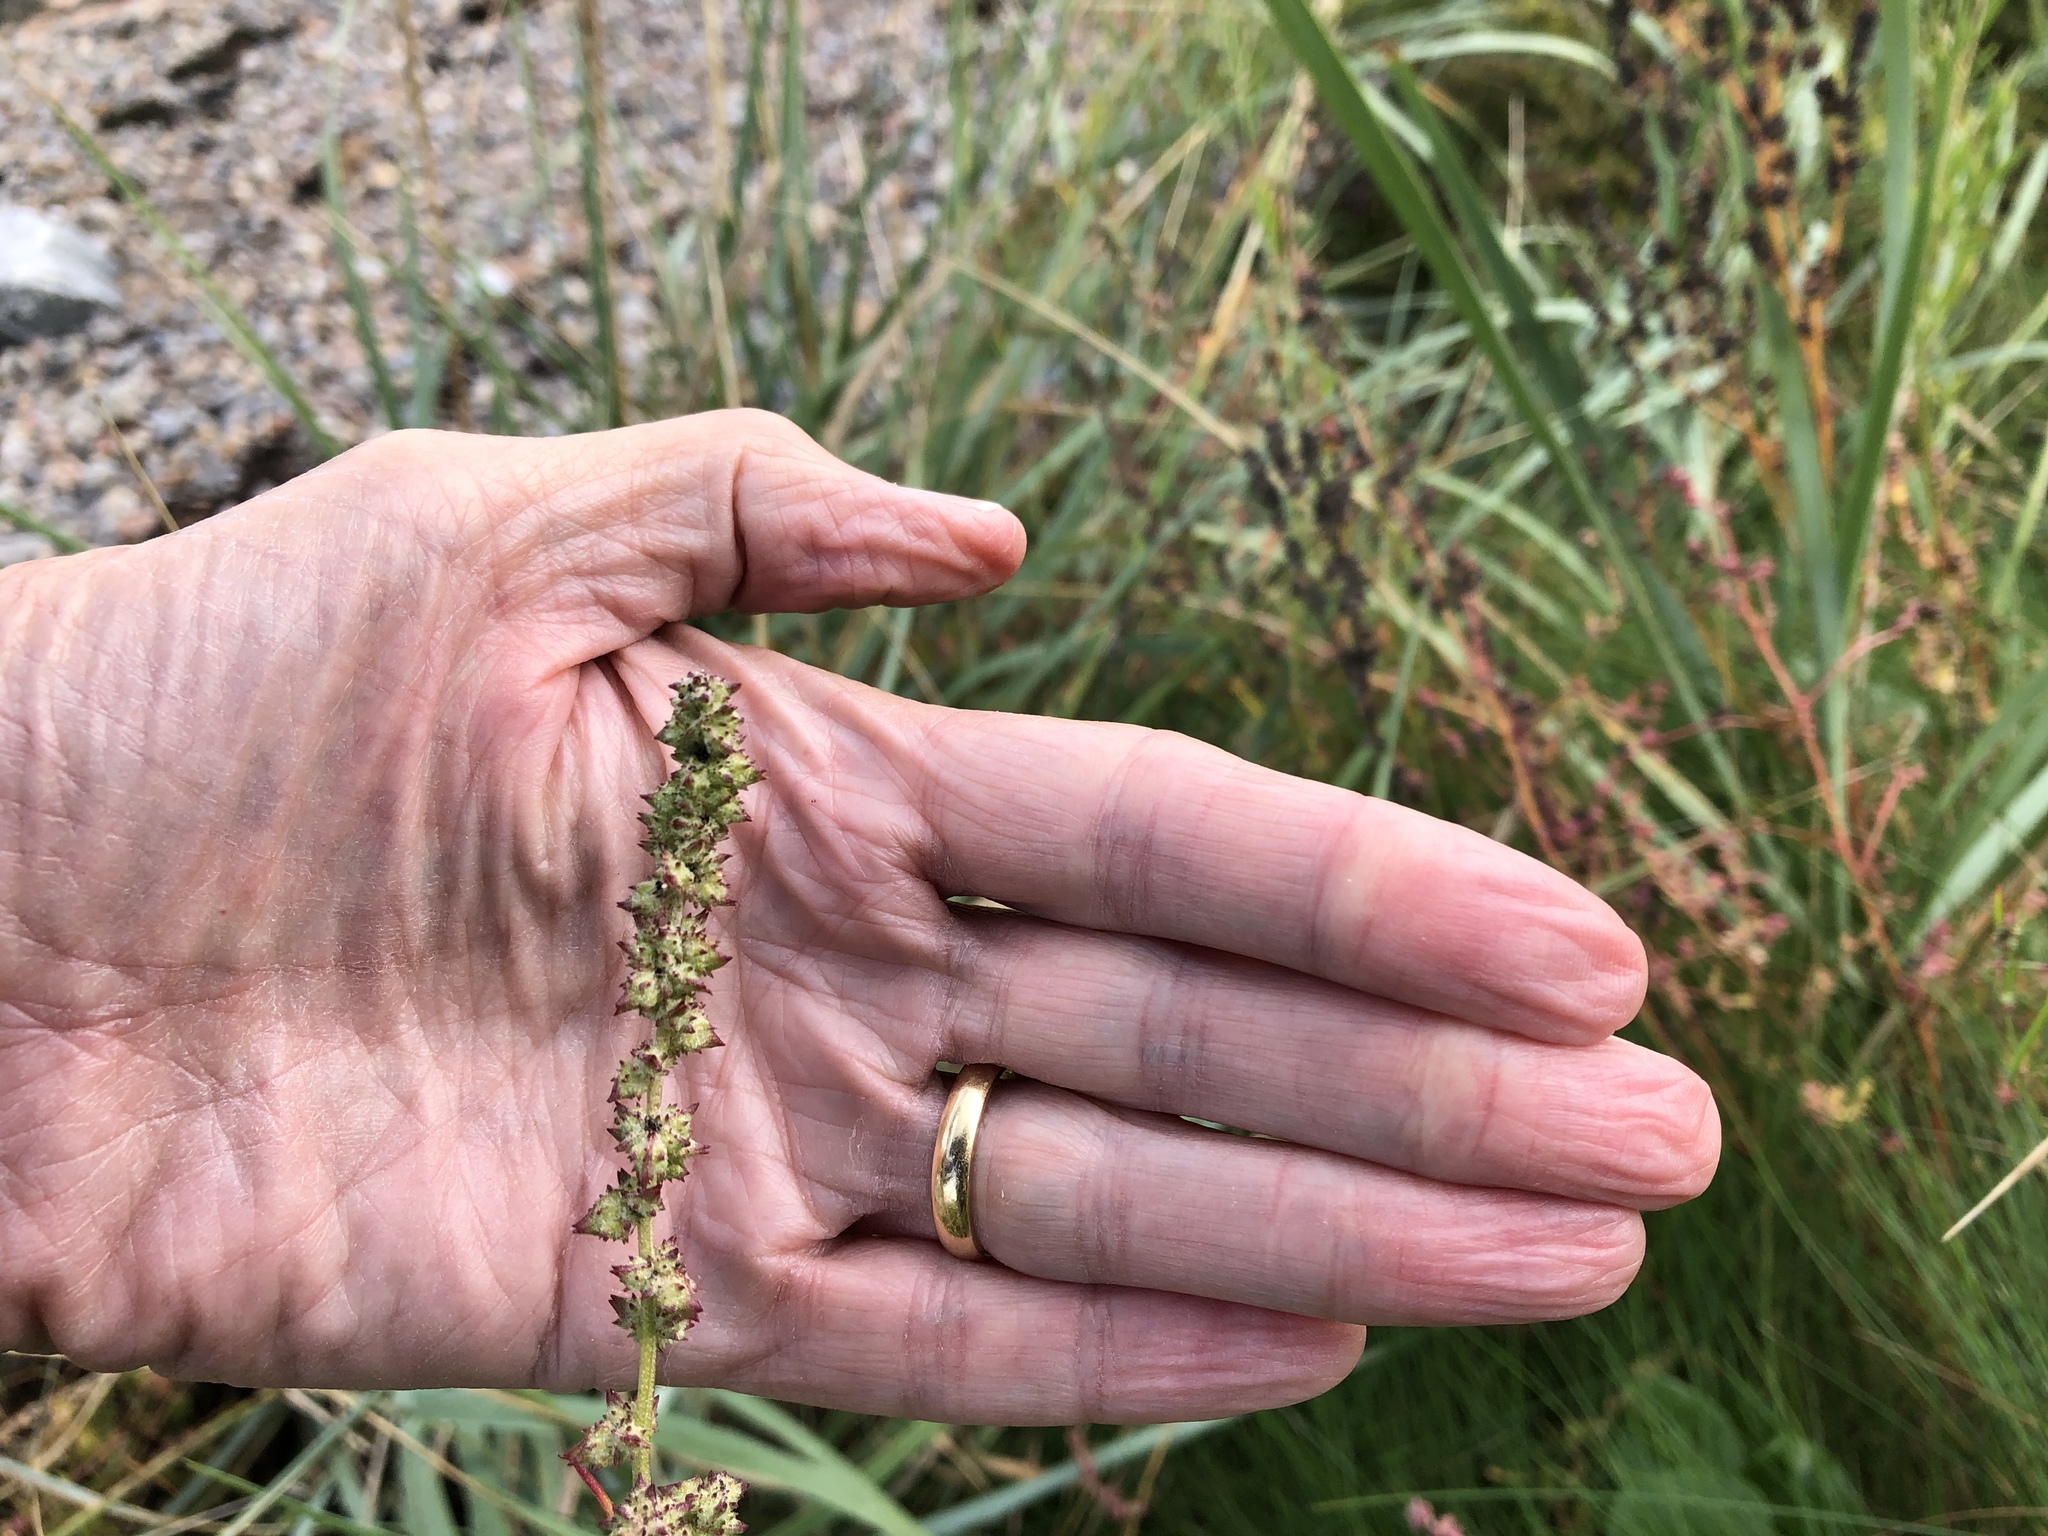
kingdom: Plantae
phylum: Tracheophyta
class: Magnoliopsida
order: Caryophyllales
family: Amaranthaceae
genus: Atriplex
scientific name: Atriplex littoralis
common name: Grass-leaved orache
